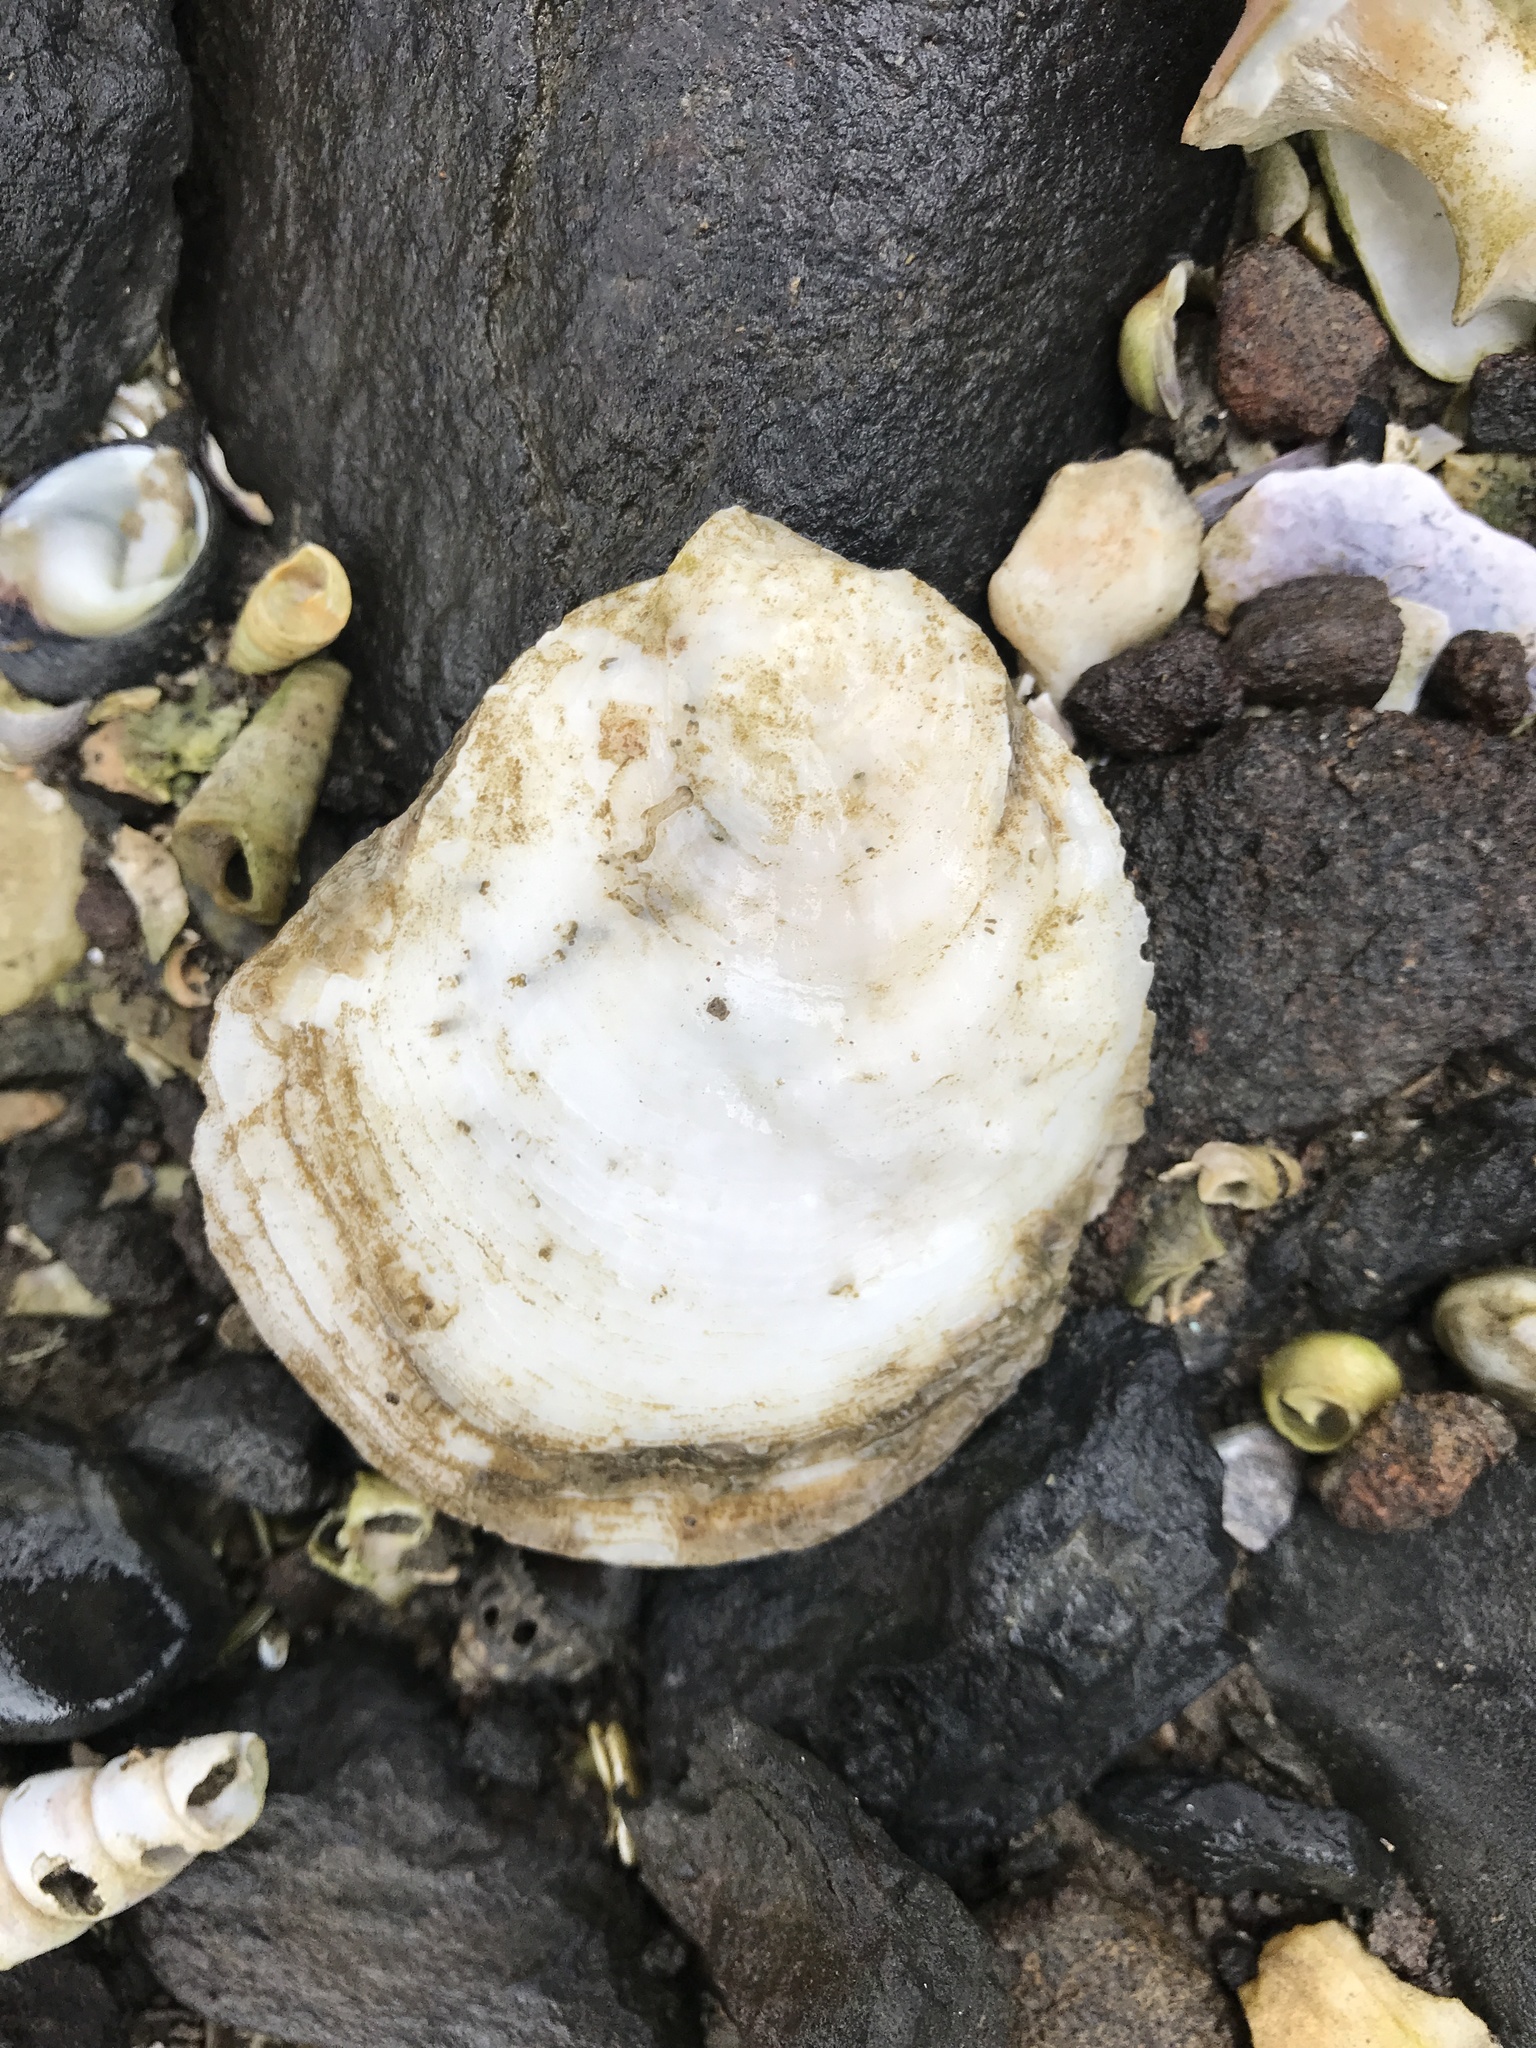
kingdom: Animalia
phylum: Mollusca
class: Bivalvia
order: Ostreida
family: Ostreidae
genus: Ostrea
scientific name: Ostrea chilensis
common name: Chilean oyster
